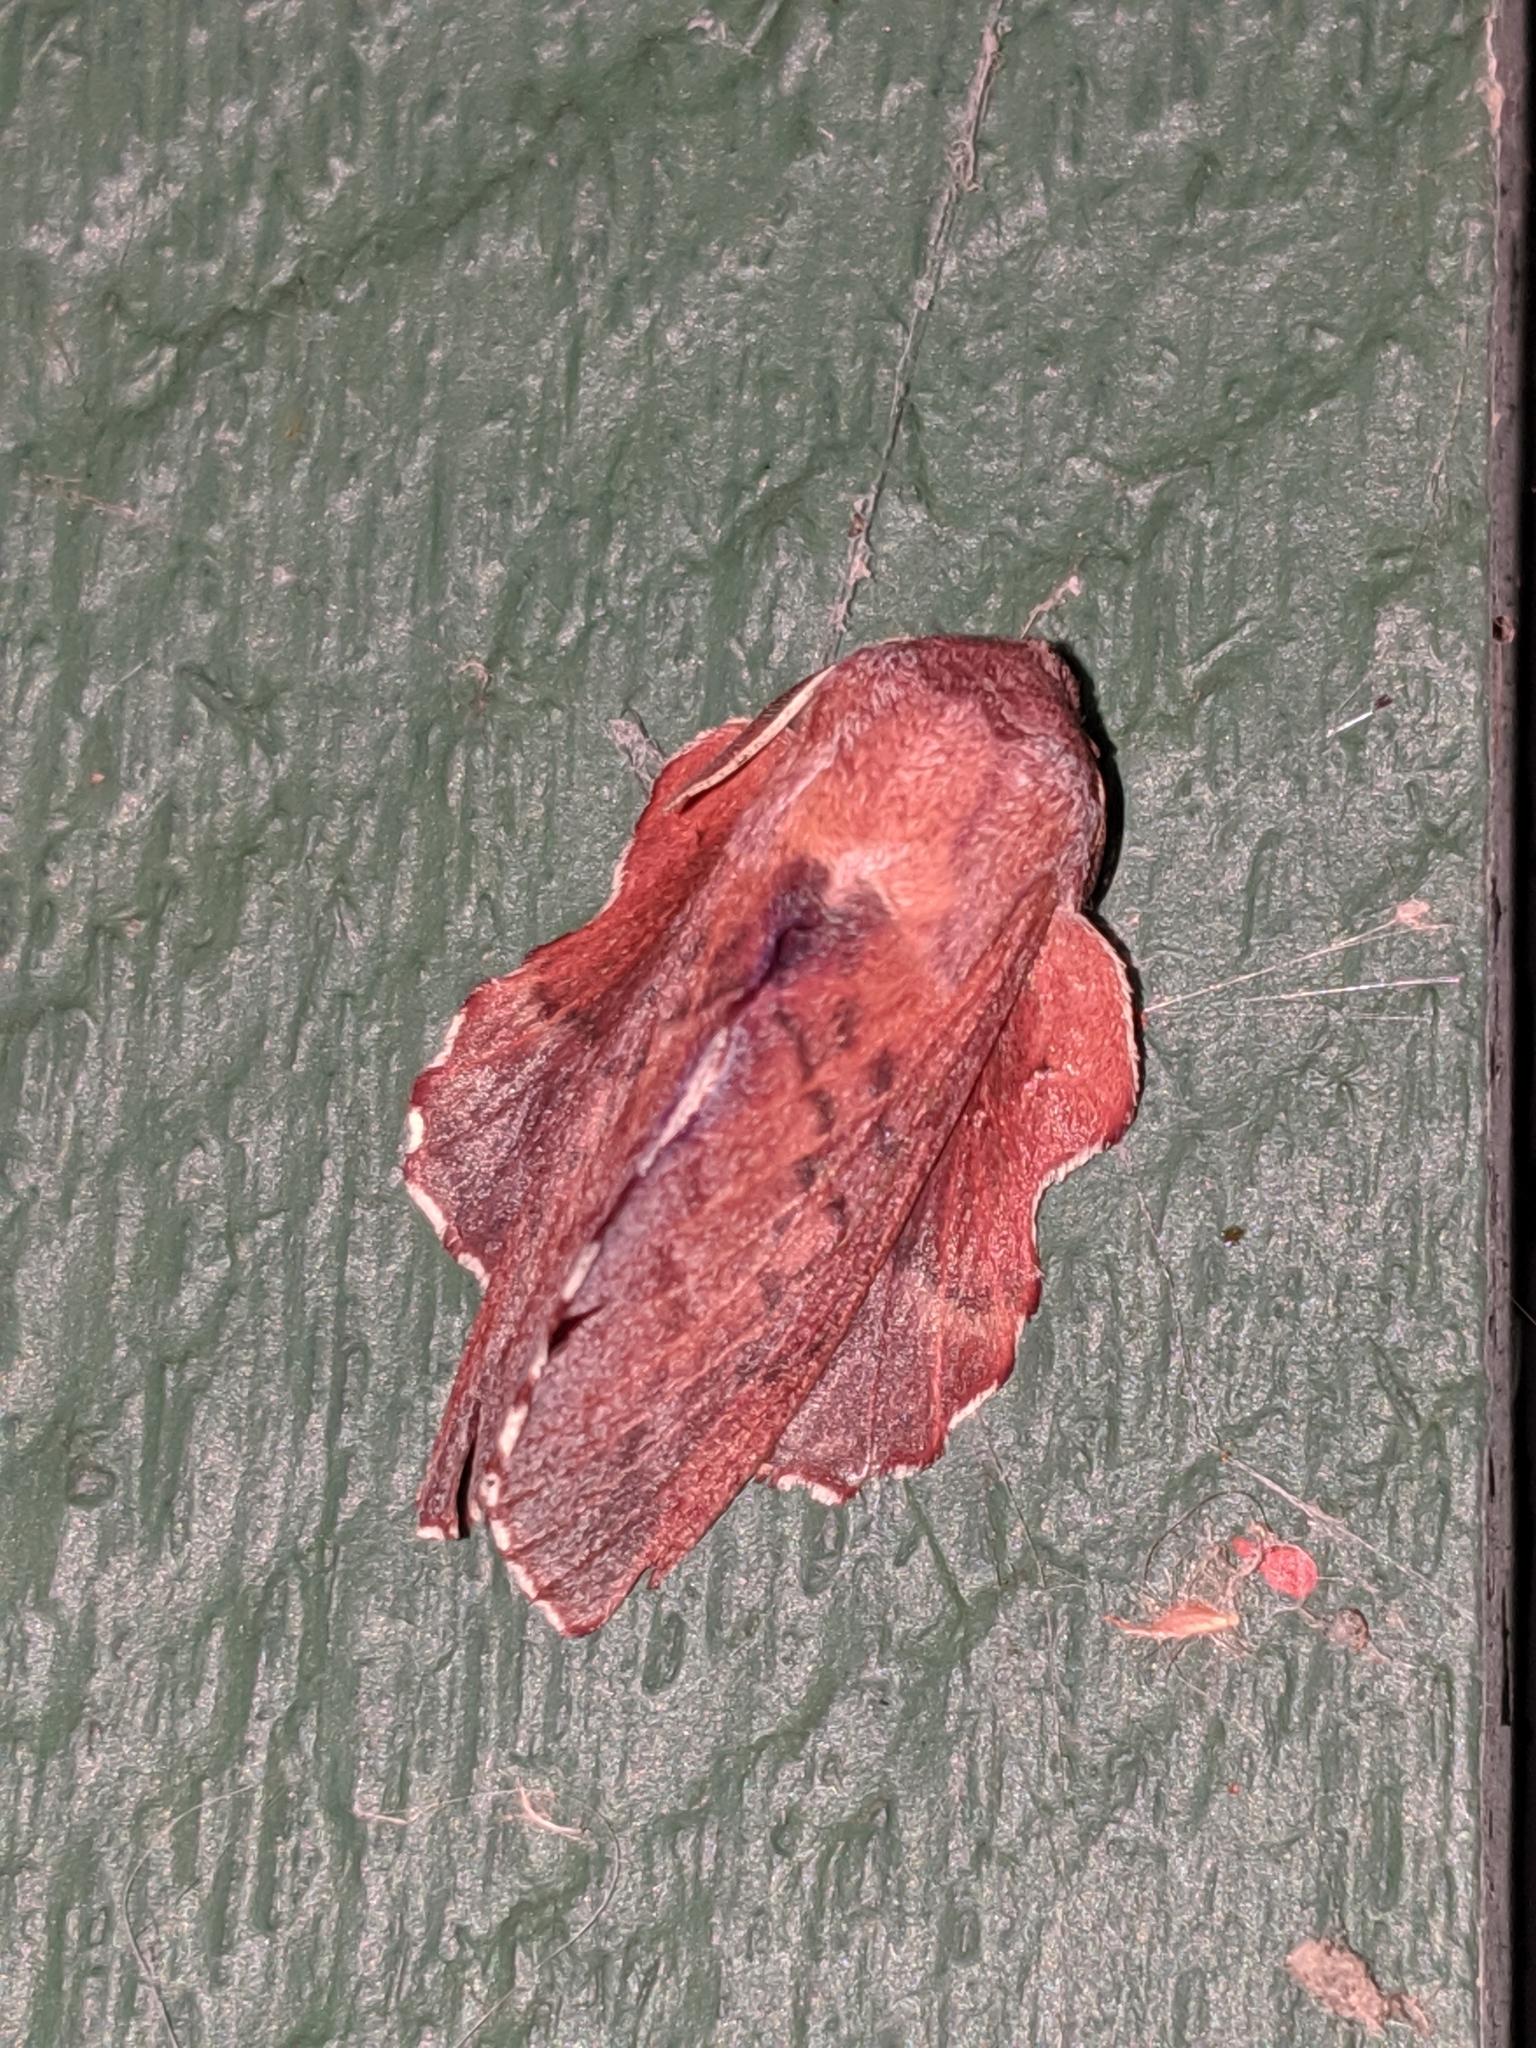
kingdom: Animalia
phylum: Arthropoda
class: Insecta
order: Lepidoptera
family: Lasiocampidae
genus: Phyllodesma
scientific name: Phyllodesma americana
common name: American lappet moth
